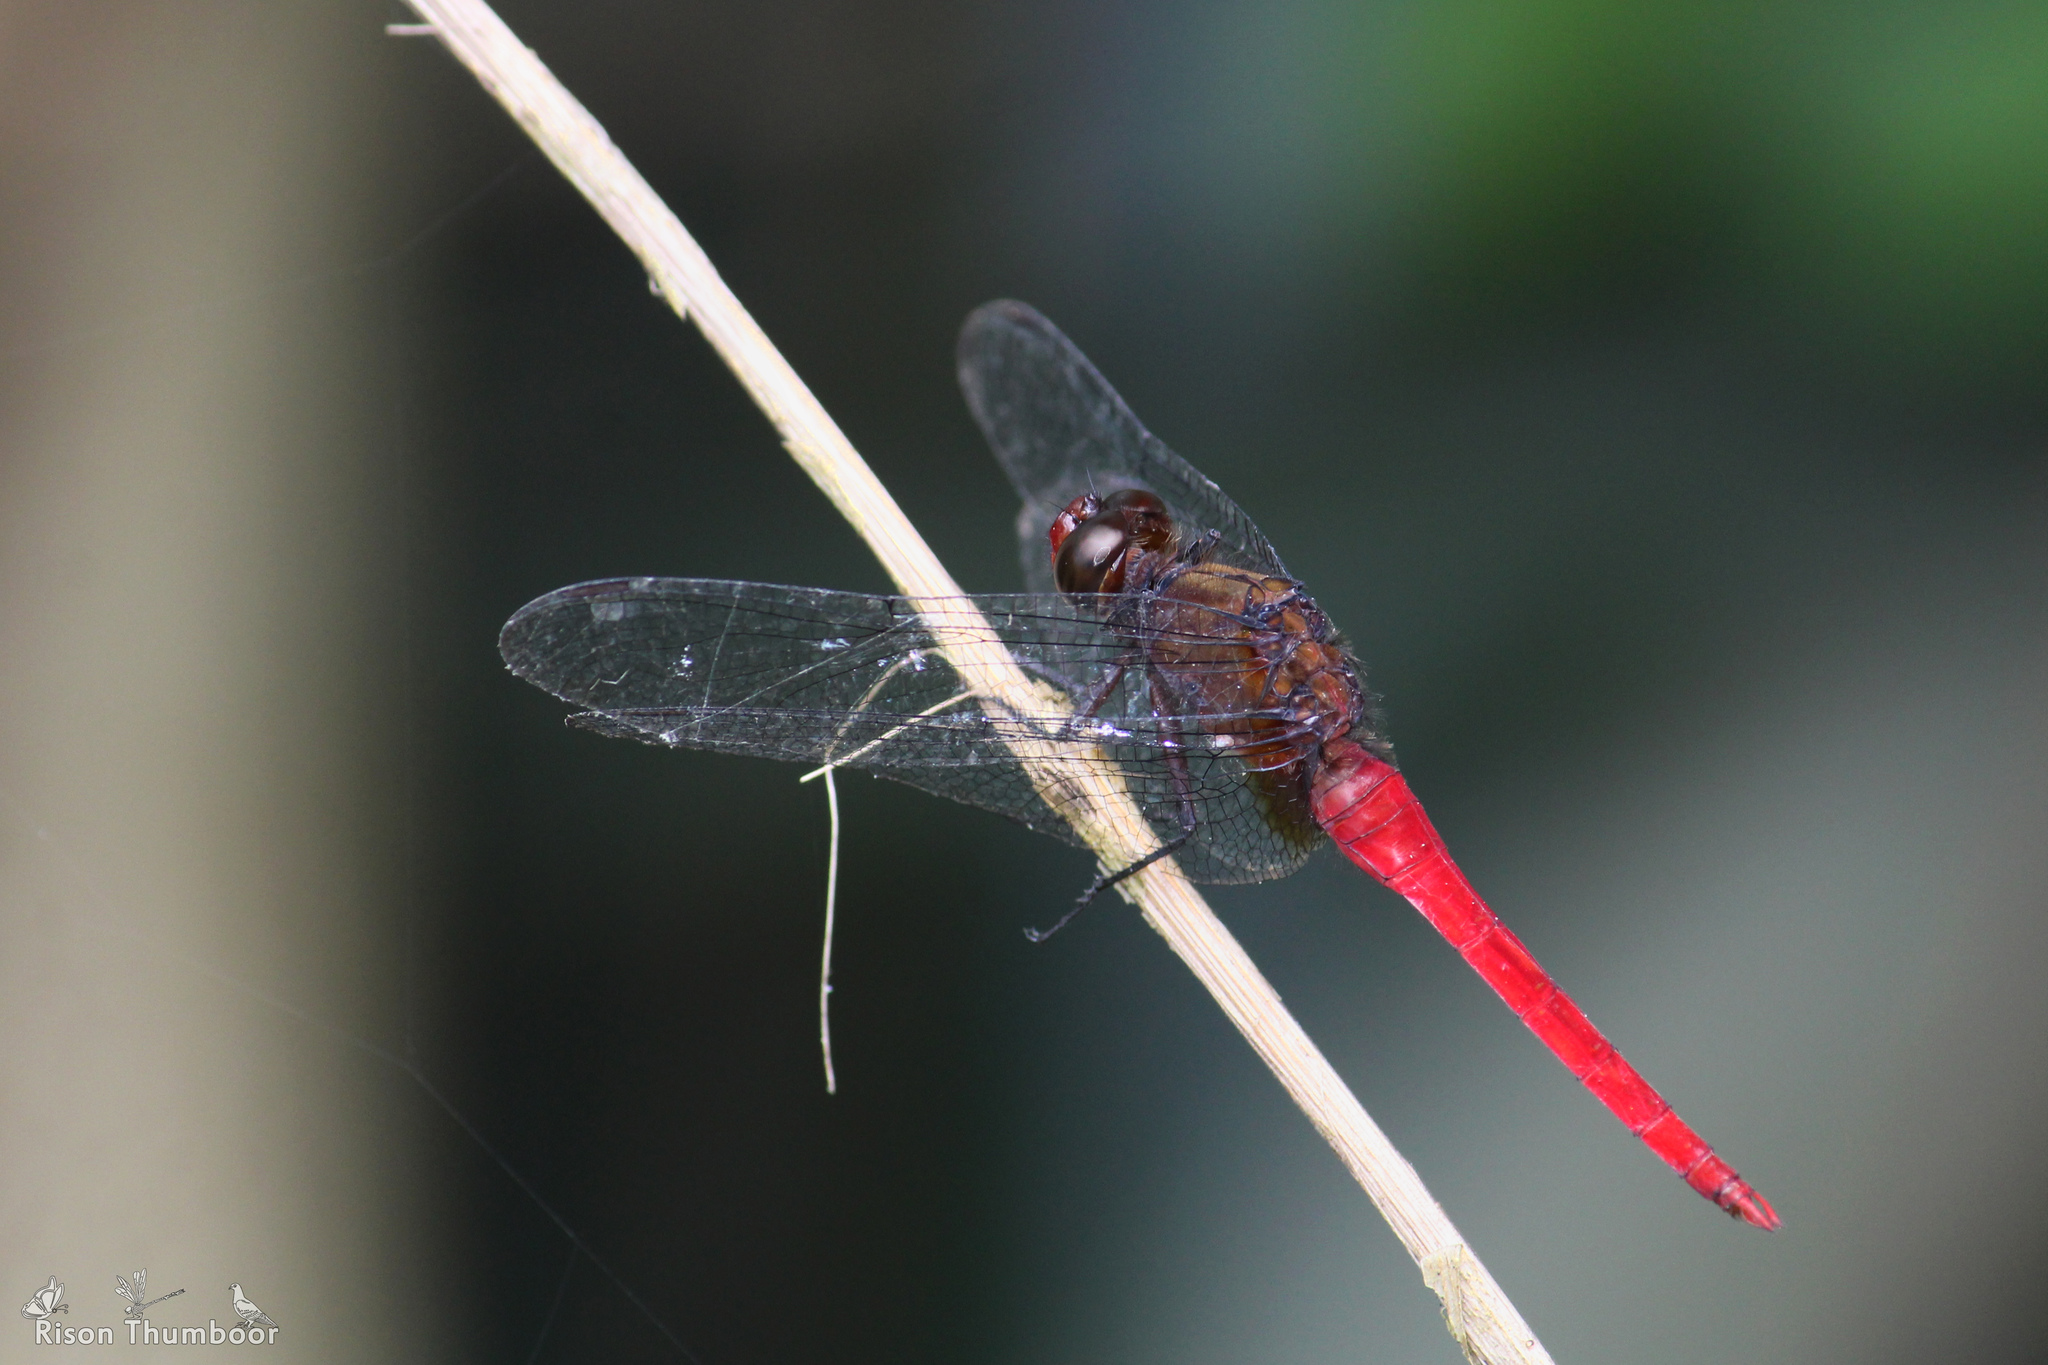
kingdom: Animalia
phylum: Arthropoda
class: Insecta
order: Odonata
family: Libellulidae
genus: Orthetrum
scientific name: Orthetrum chrysis
